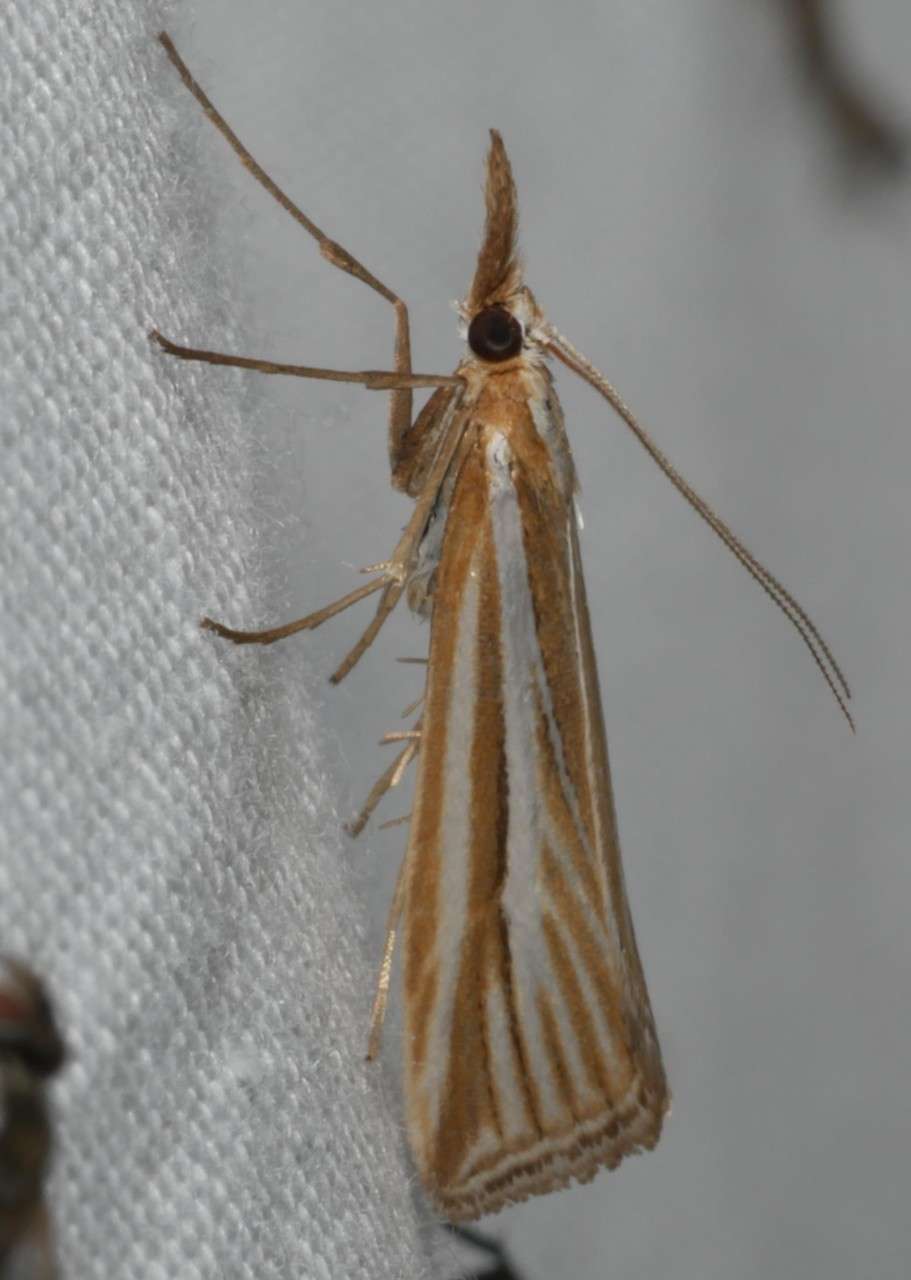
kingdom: Animalia
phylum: Arthropoda
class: Insecta
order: Lepidoptera
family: Crambidae
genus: Hednota
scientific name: Hednota grammellus
